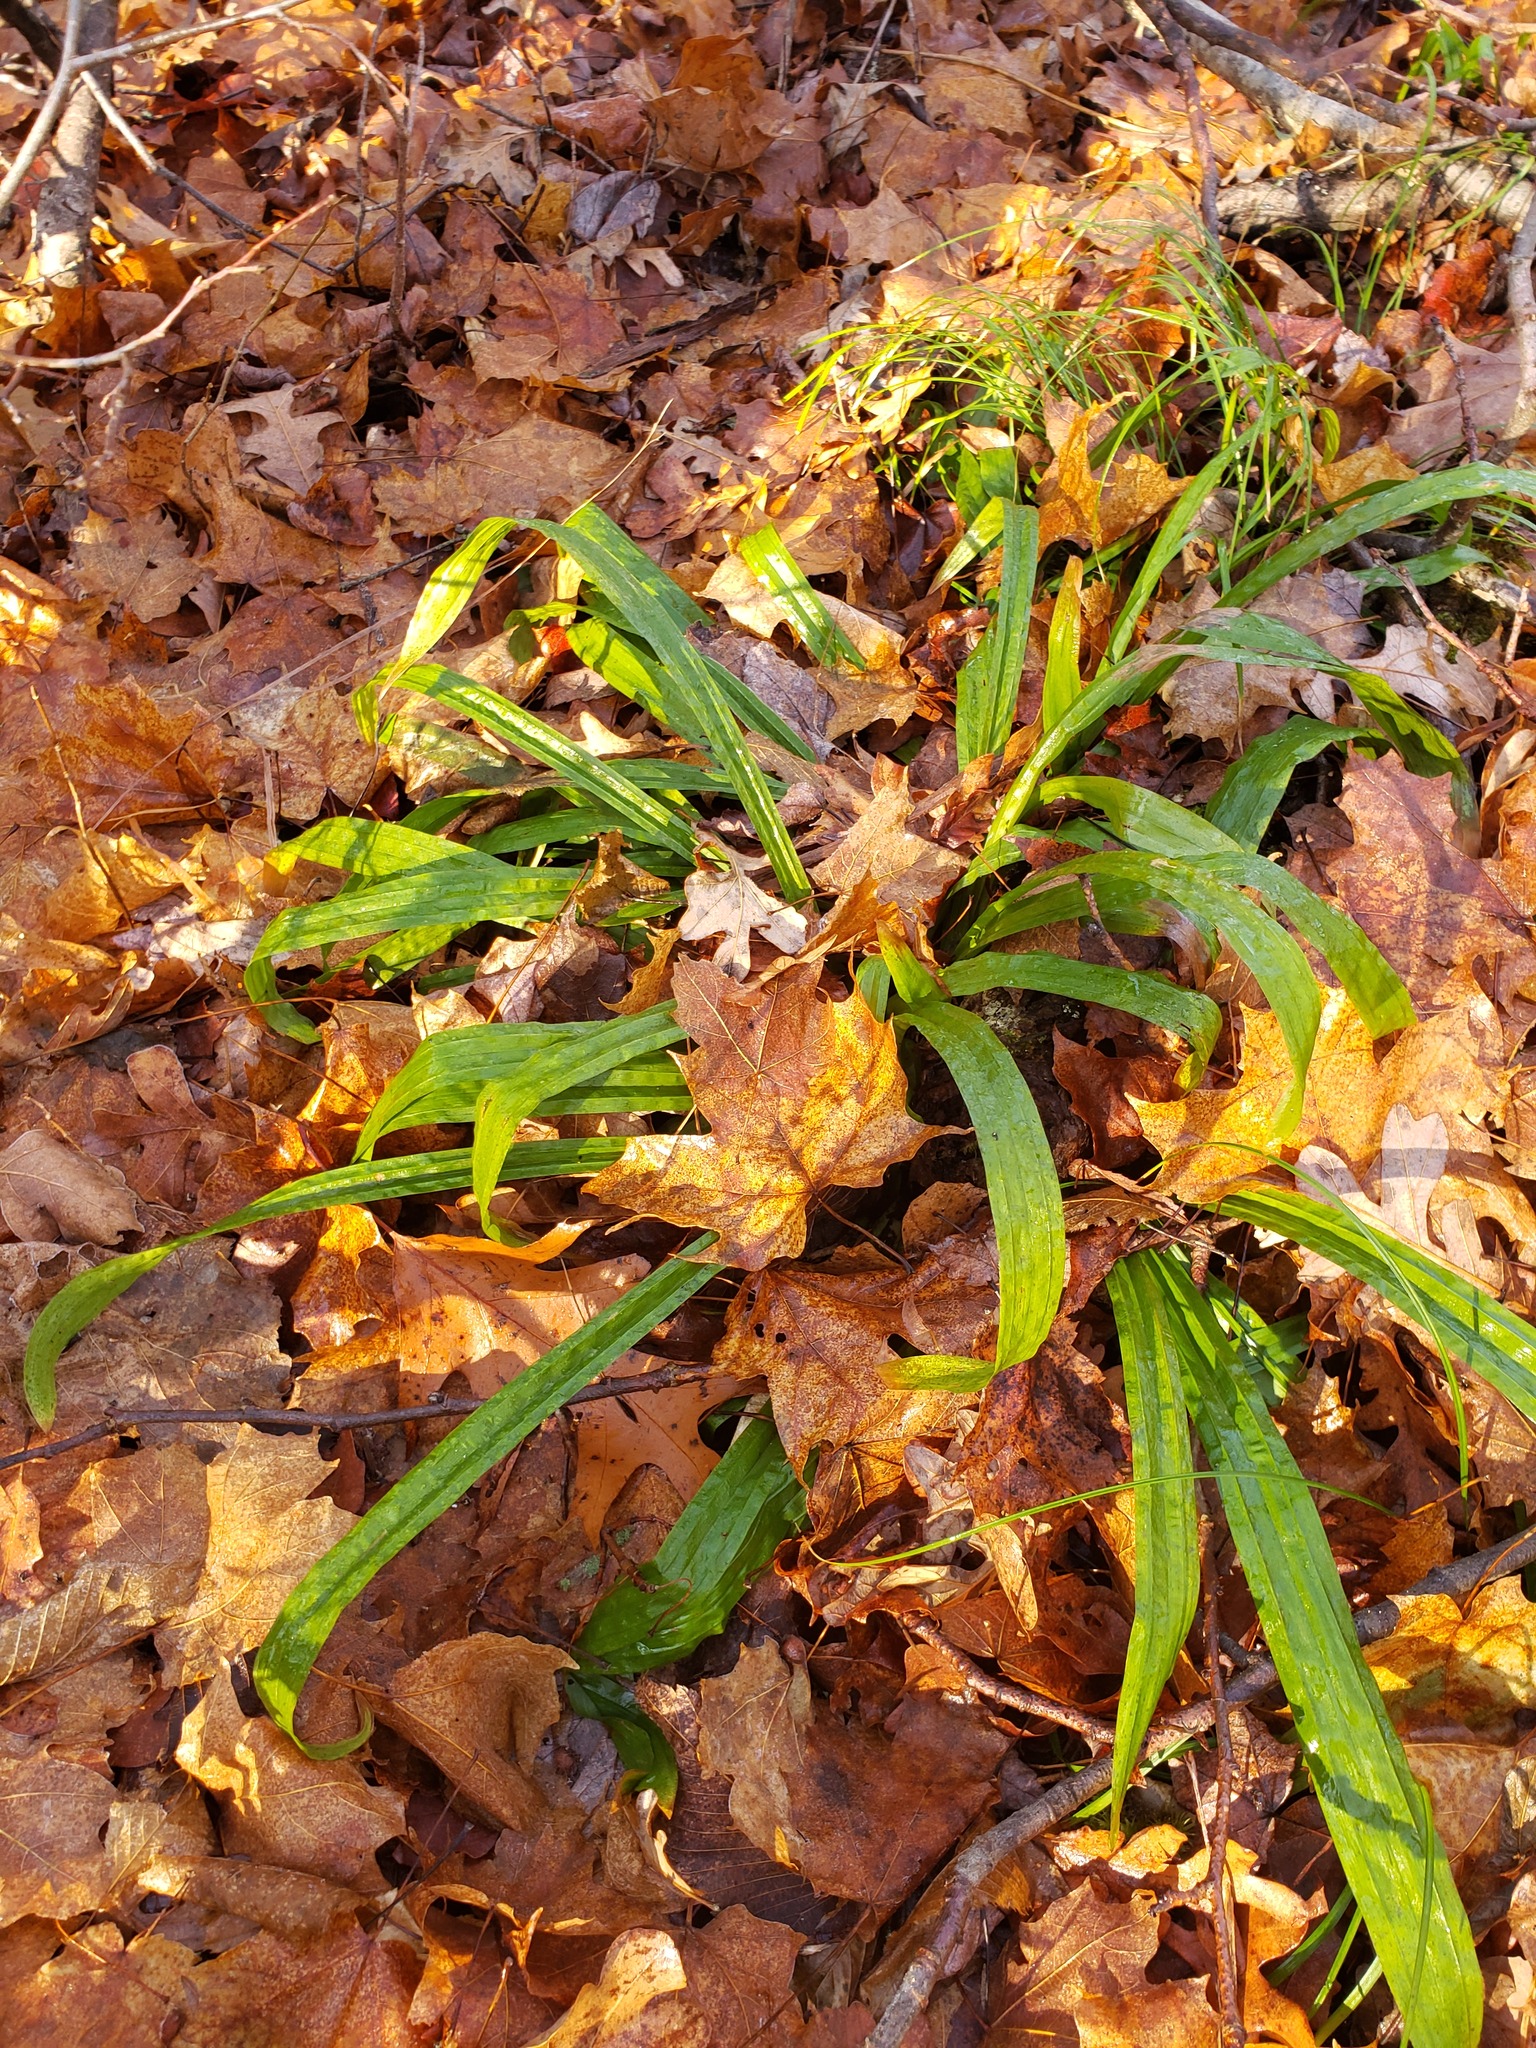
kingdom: Plantae
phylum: Tracheophyta
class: Liliopsida
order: Poales
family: Cyperaceae
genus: Carex
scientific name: Carex plantaginea
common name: Plantain-leaved sedge
